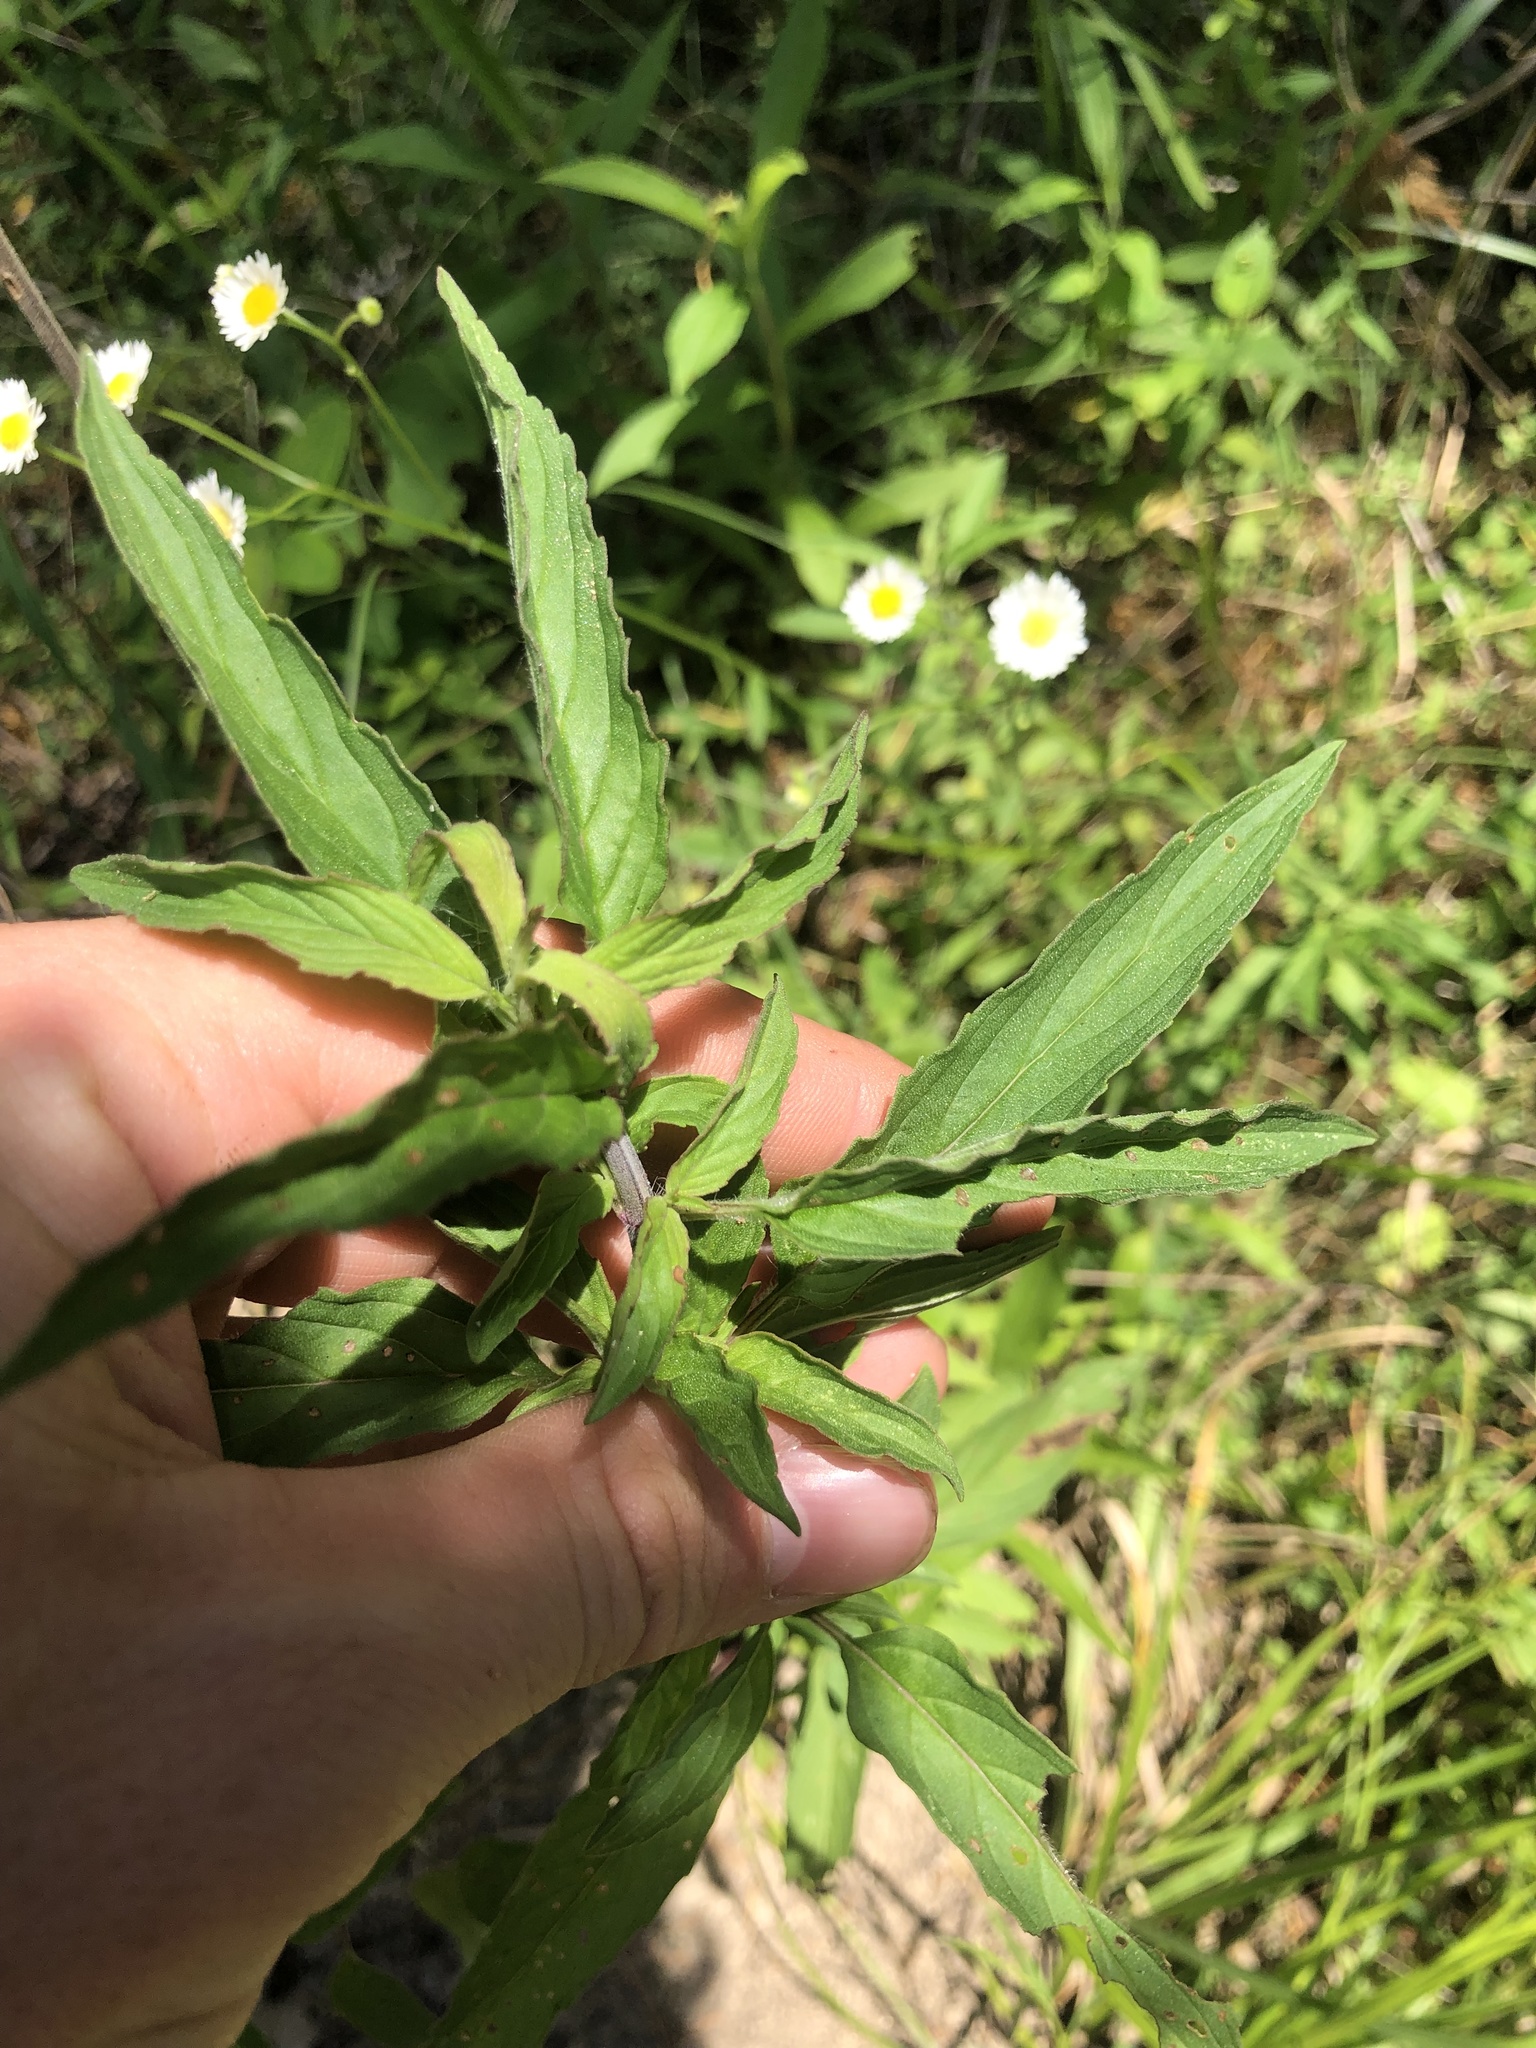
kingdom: Plantae
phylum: Tracheophyta
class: Magnoliopsida
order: Lamiales
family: Lamiaceae
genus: Monarda
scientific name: Monarda punctata
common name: Dotted monarda
